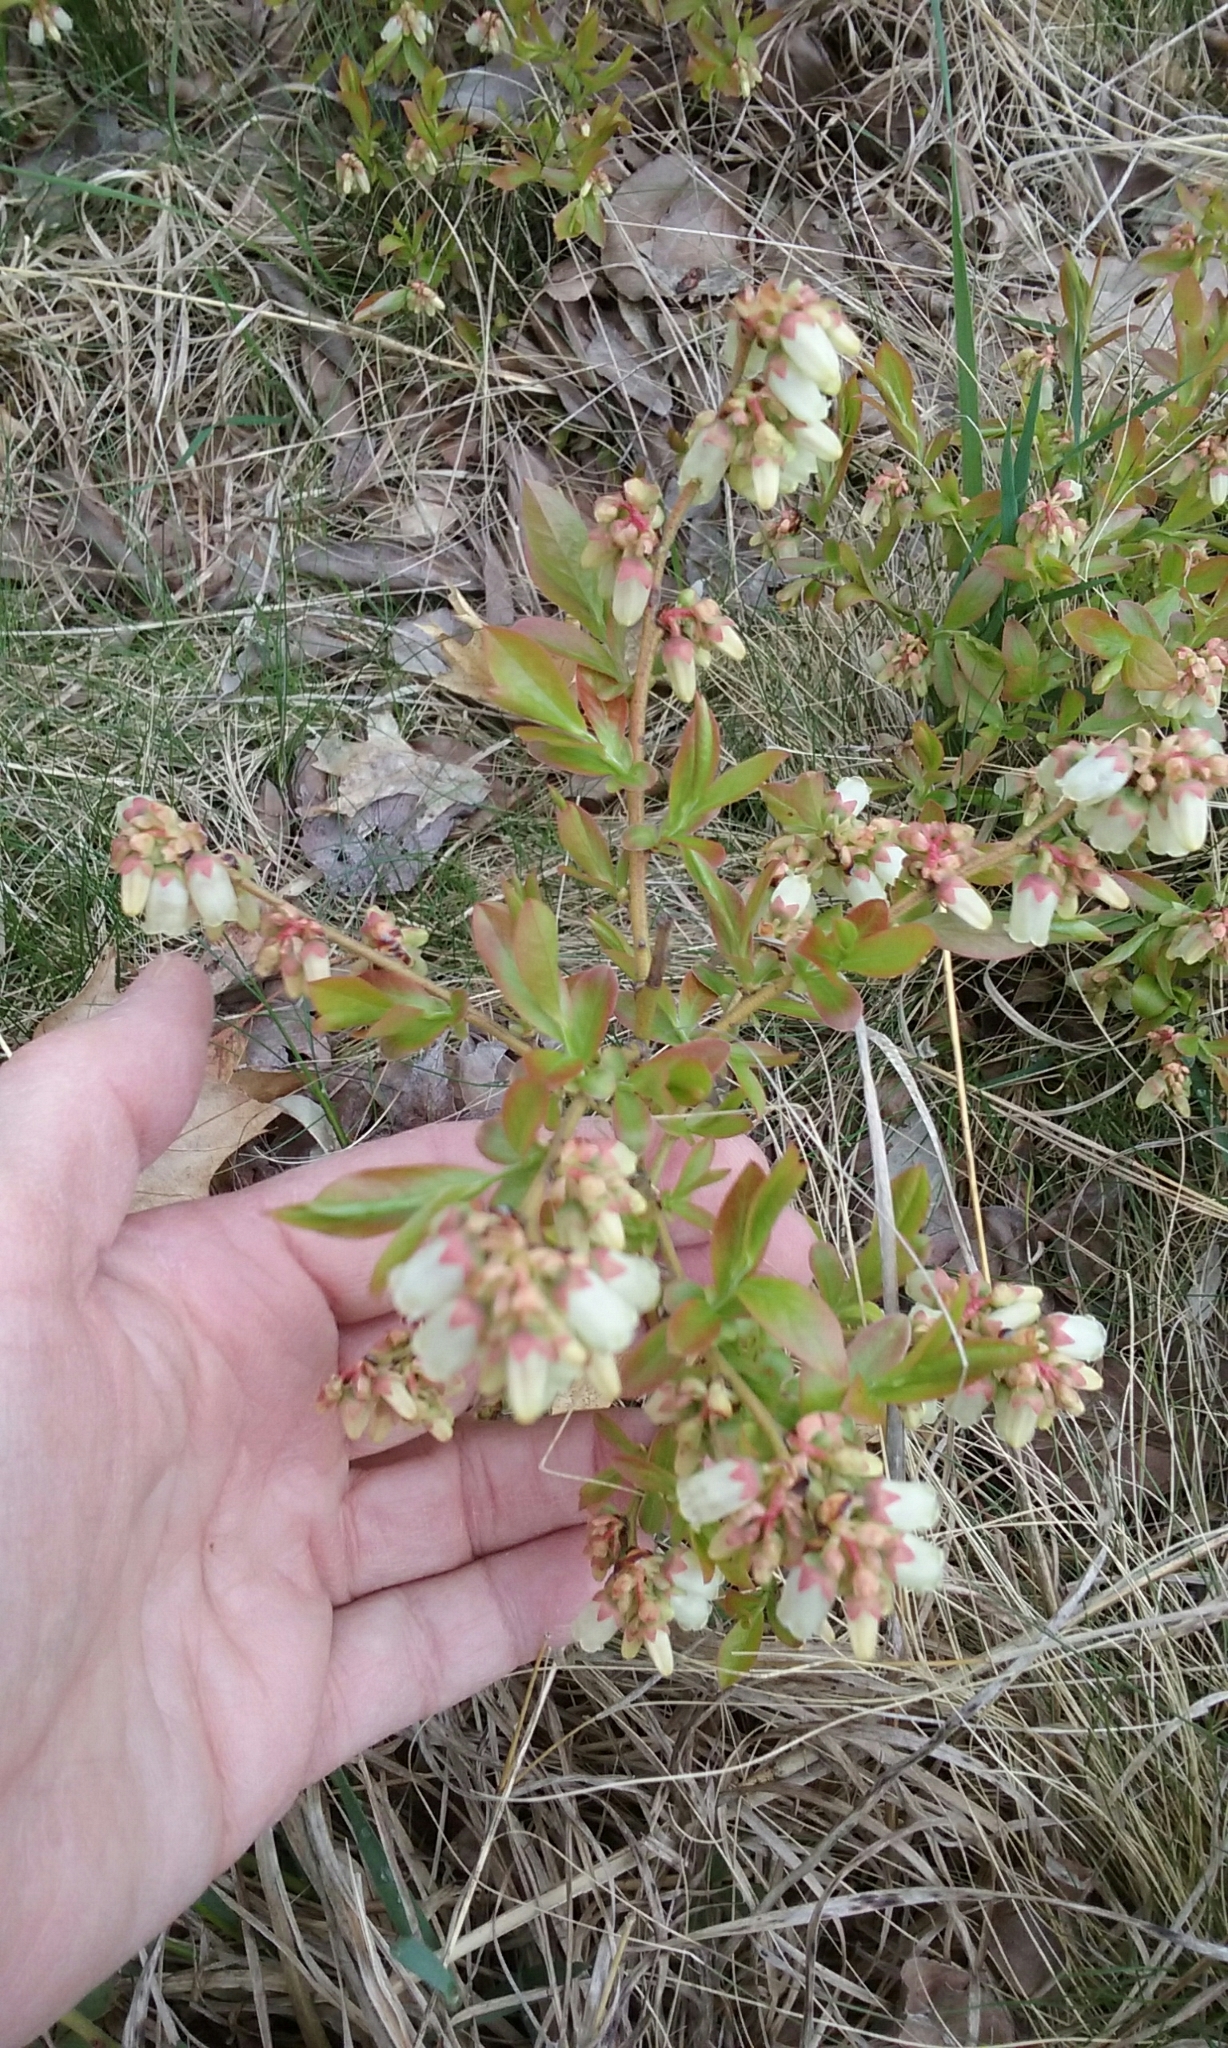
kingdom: Plantae
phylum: Tracheophyta
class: Magnoliopsida
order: Ericales
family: Ericaceae
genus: Vaccinium
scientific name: Vaccinium angustifolium
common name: Early lowbush blueberry
